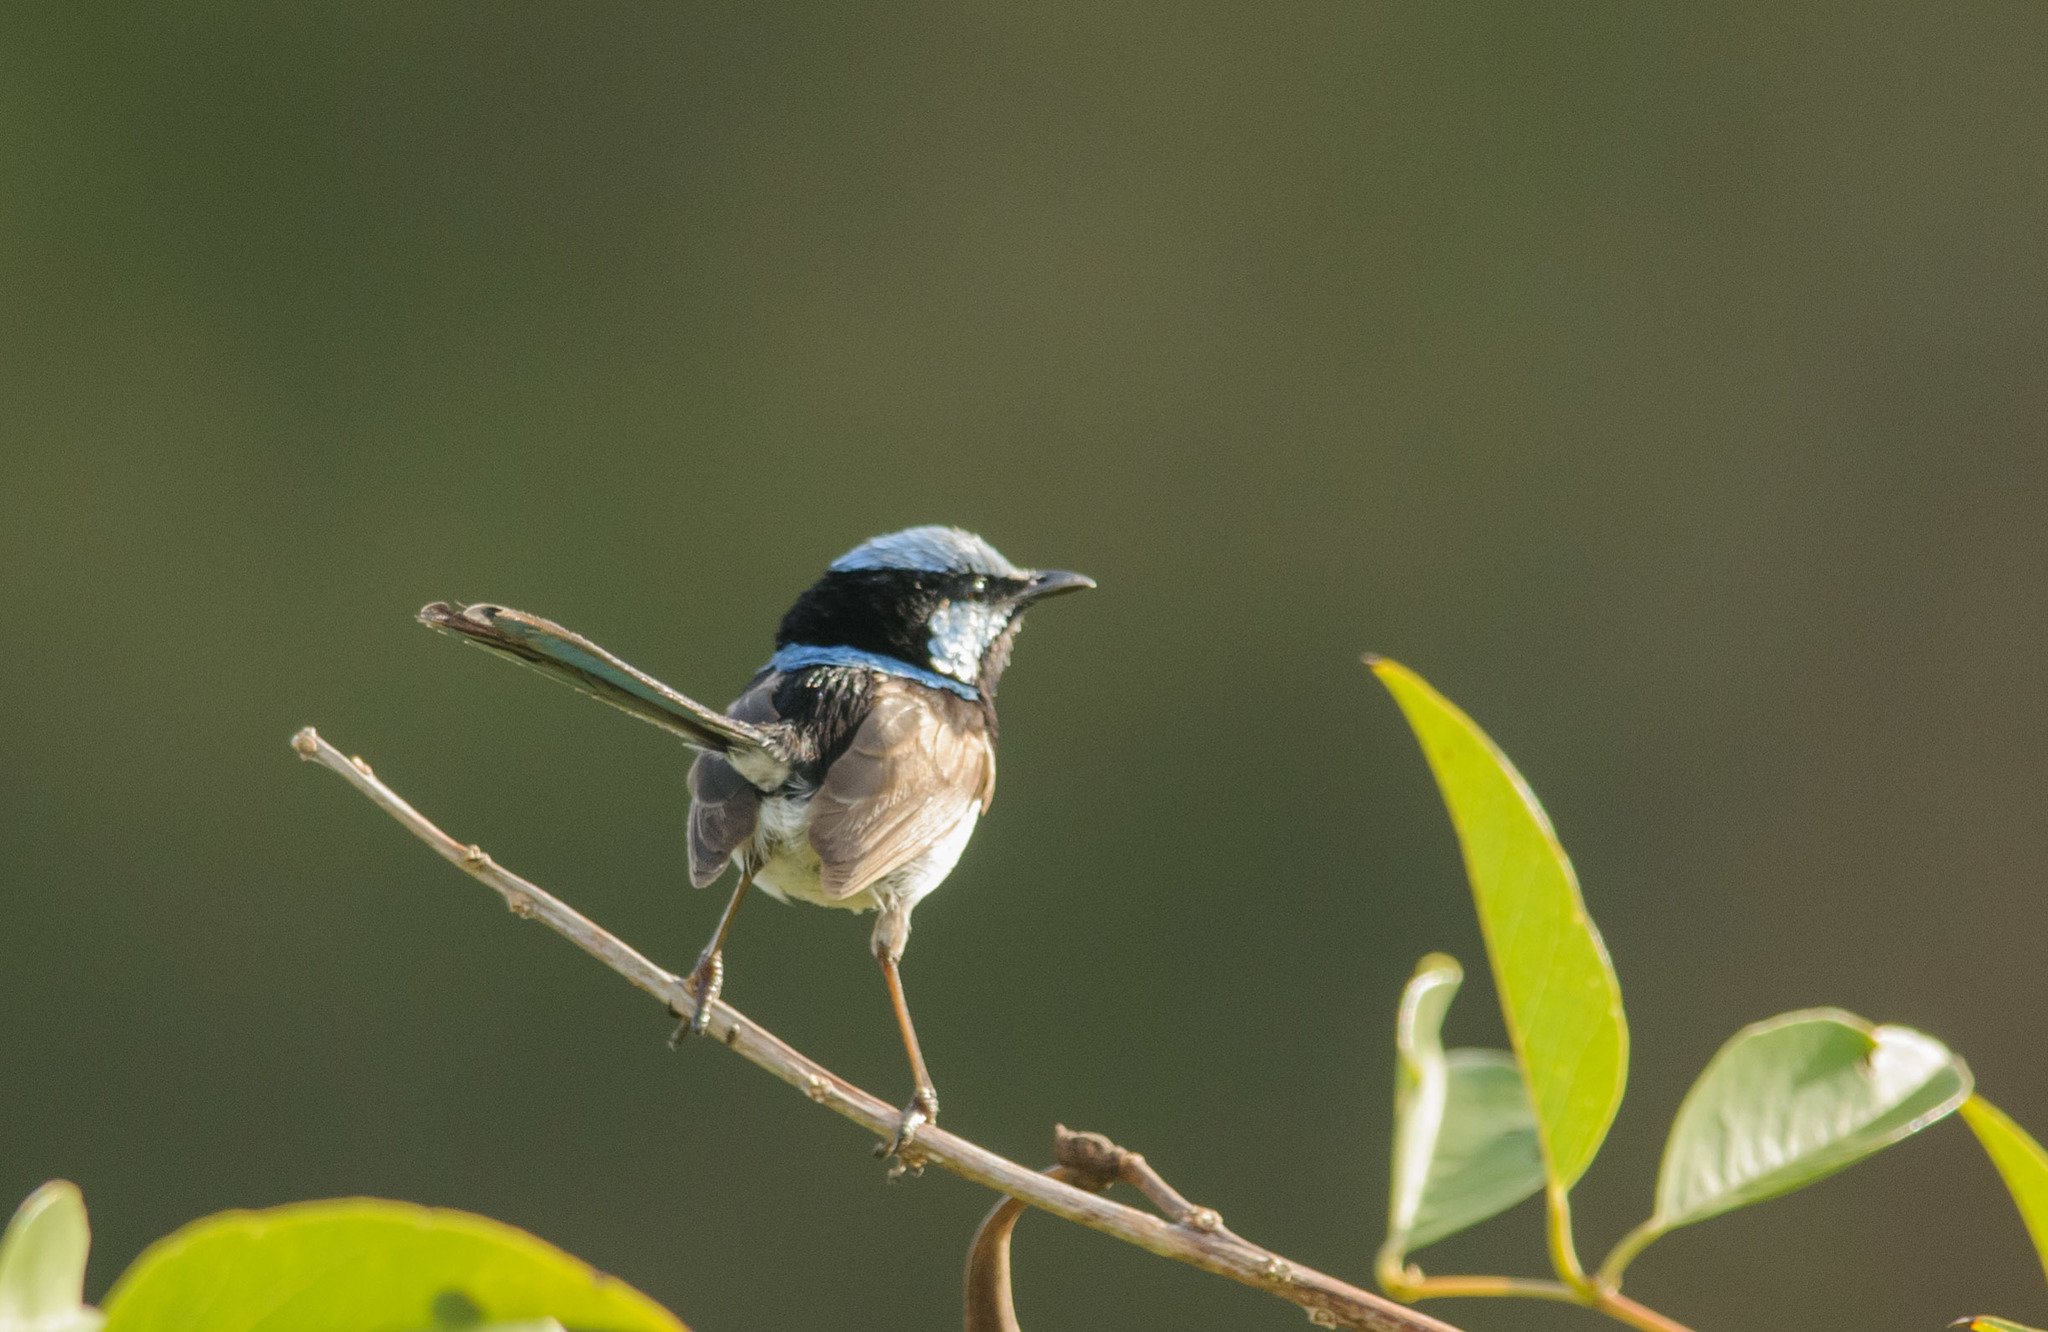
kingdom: Animalia
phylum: Chordata
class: Aves
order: Passeriformes
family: Maluridae
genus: Malurus
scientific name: Malurus cyaneus
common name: Superb fairywren
